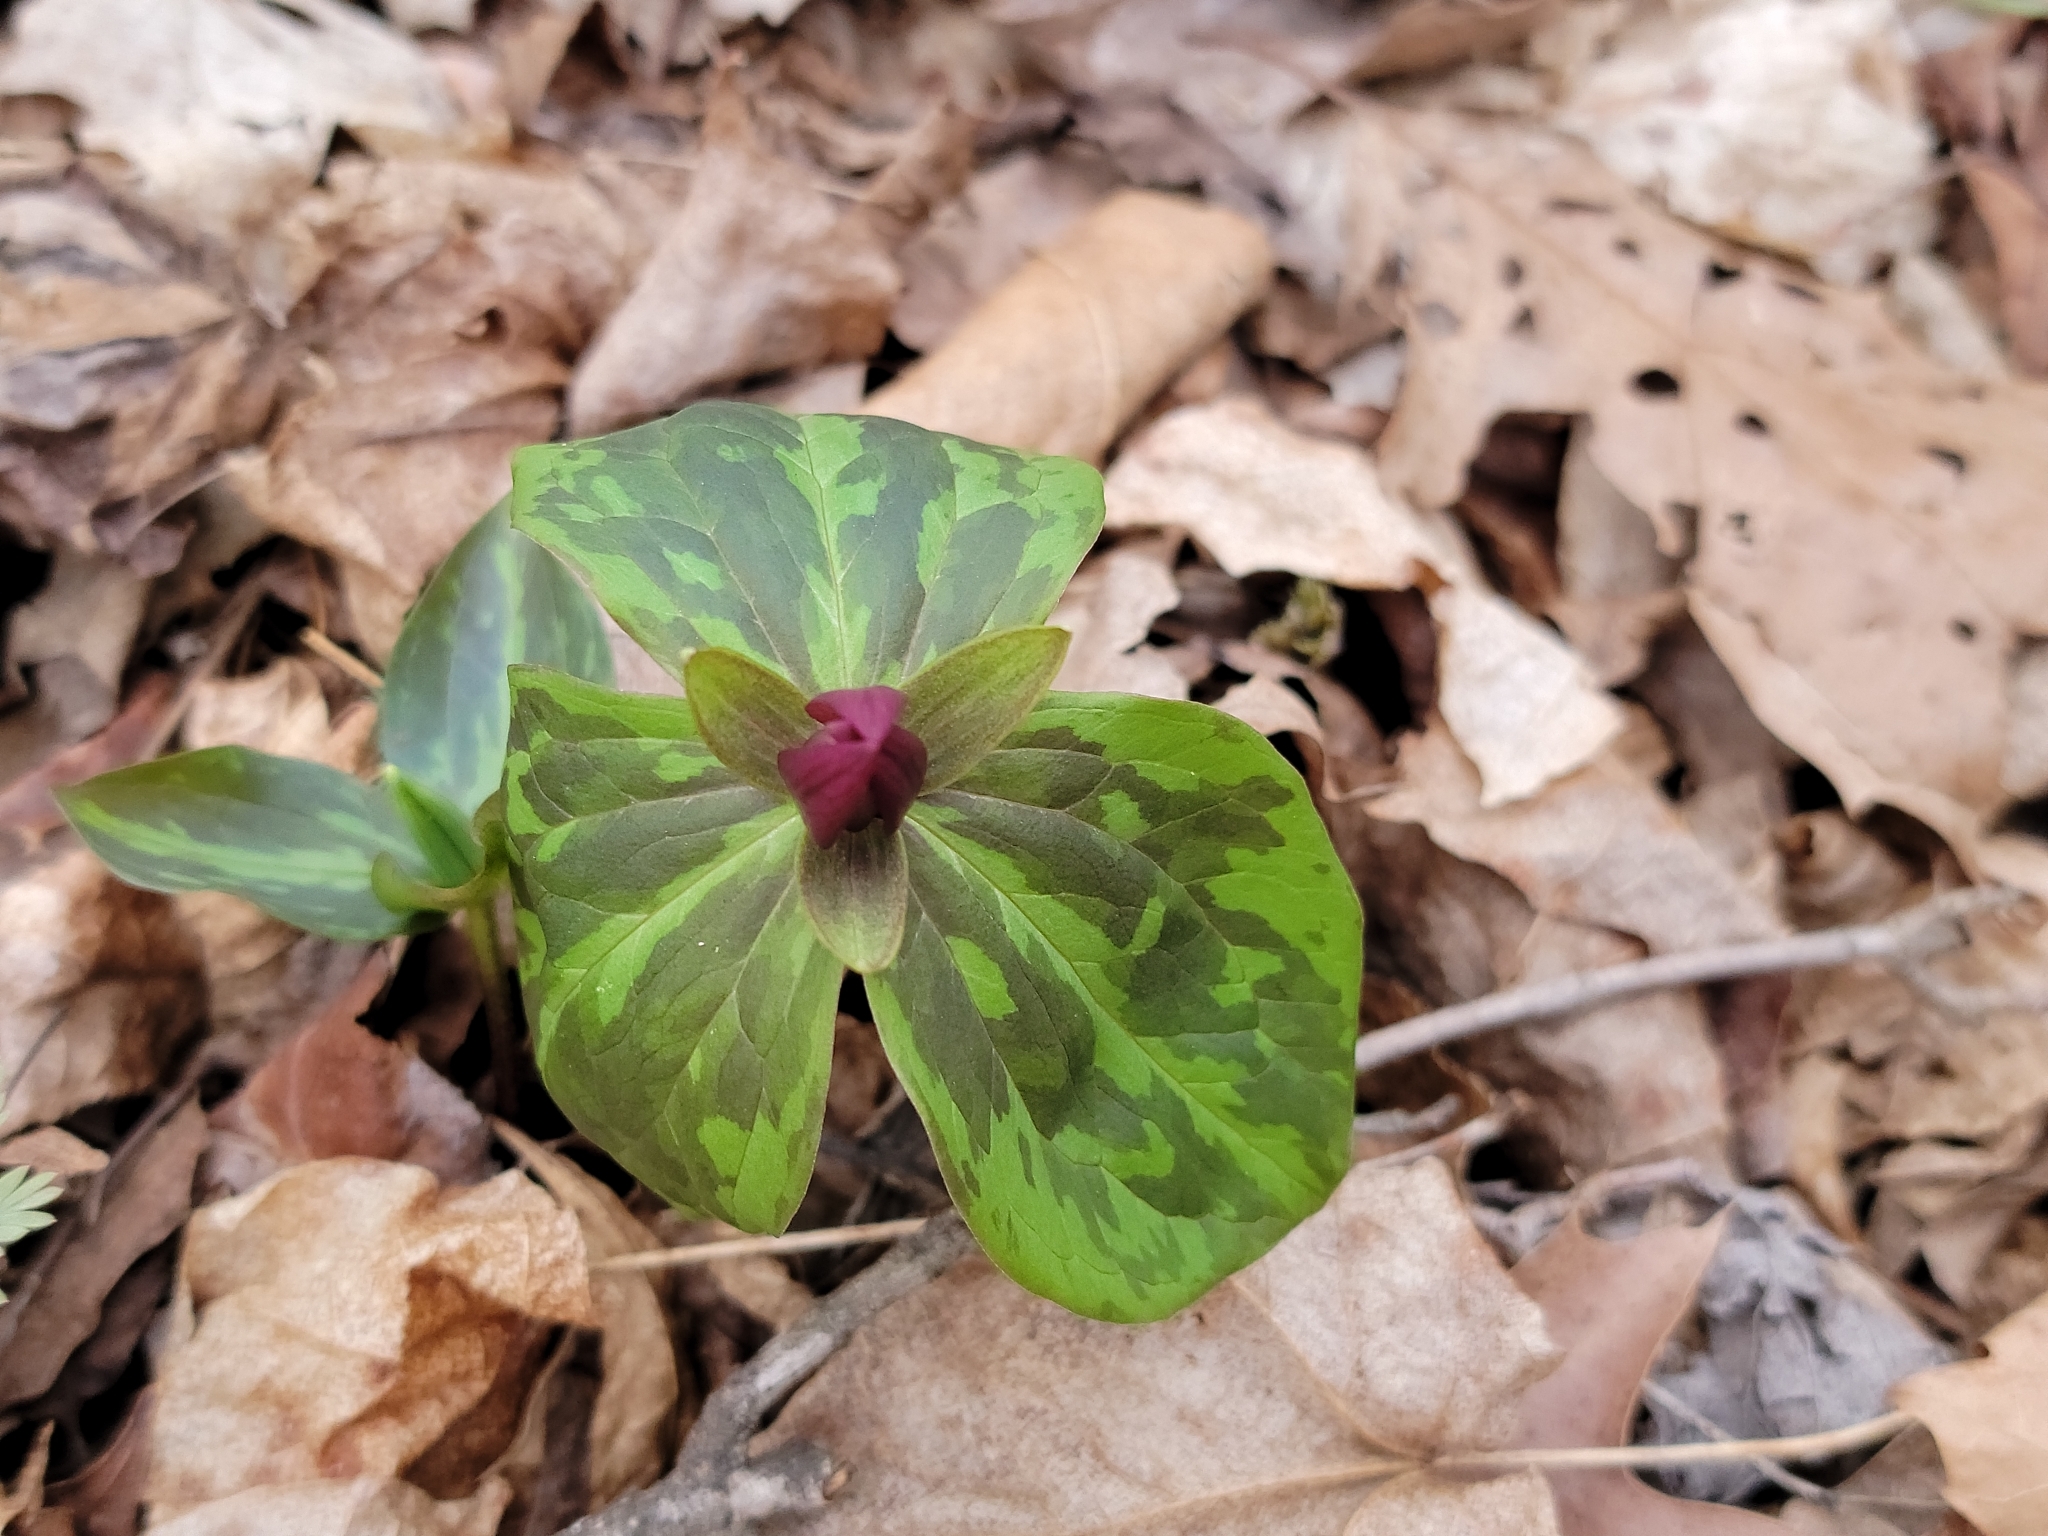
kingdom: Plantae
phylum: Tracheophyta
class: Liliopsida
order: Liliales
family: Melanthiaceae
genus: Trillium
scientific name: Trillium sessile
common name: Sessile trillium
